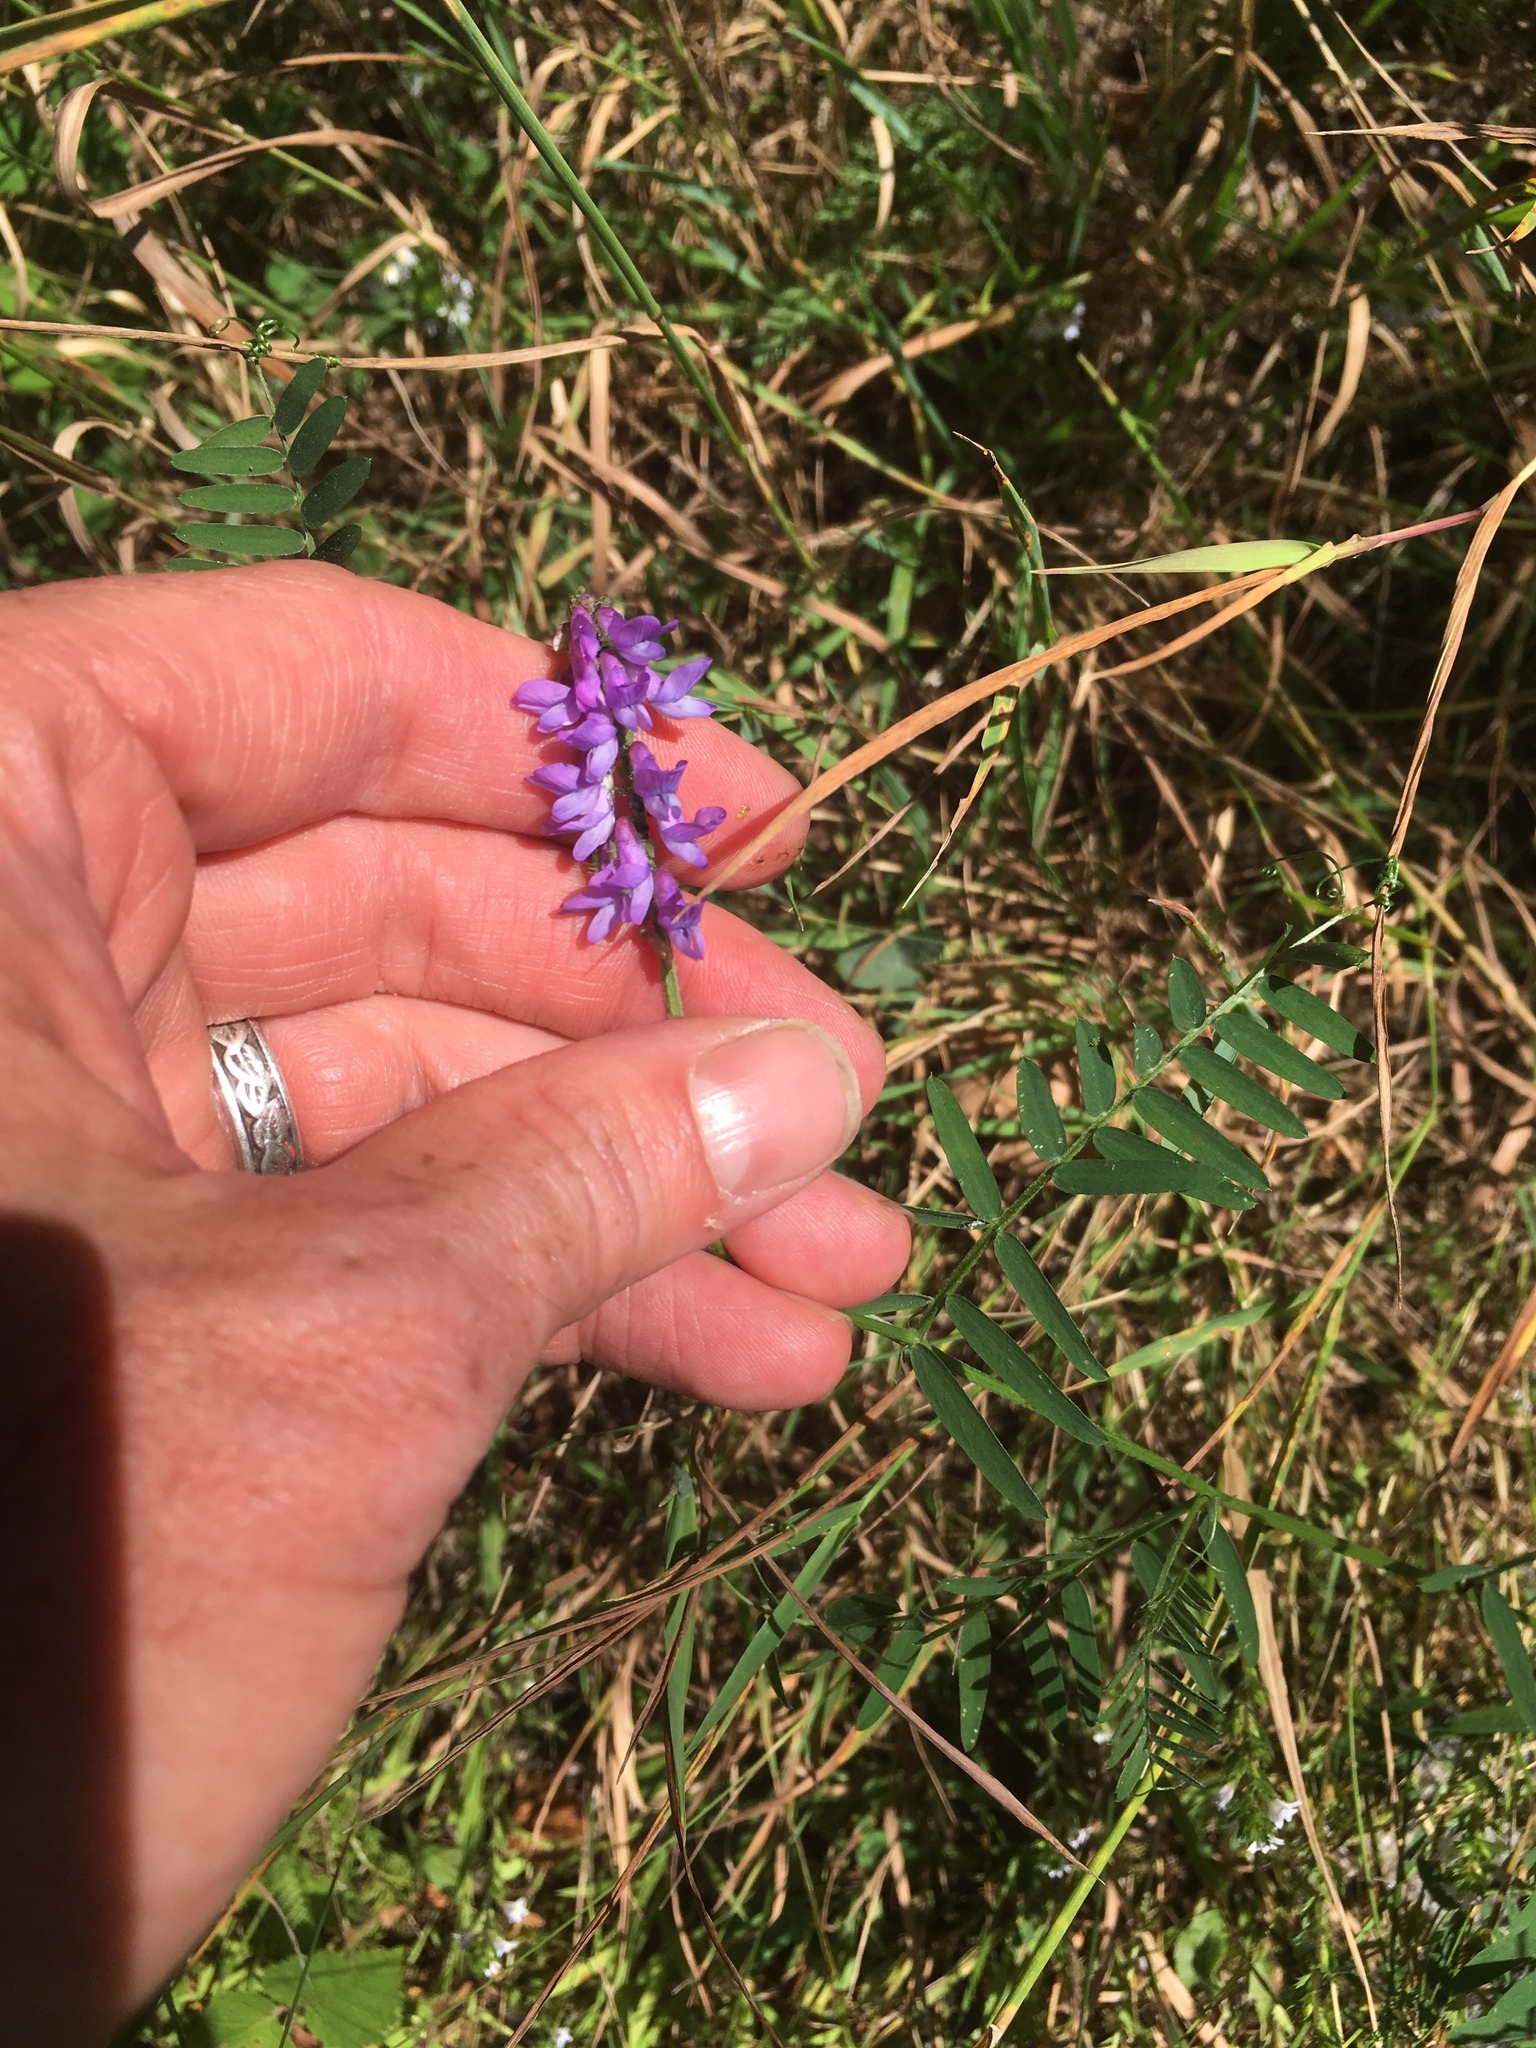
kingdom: Plantae
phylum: Tracheophyta
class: Magnoliopsida
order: Fabales
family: Fabaceae
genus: Vicia
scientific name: Vicia cracca
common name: Bird vetch
